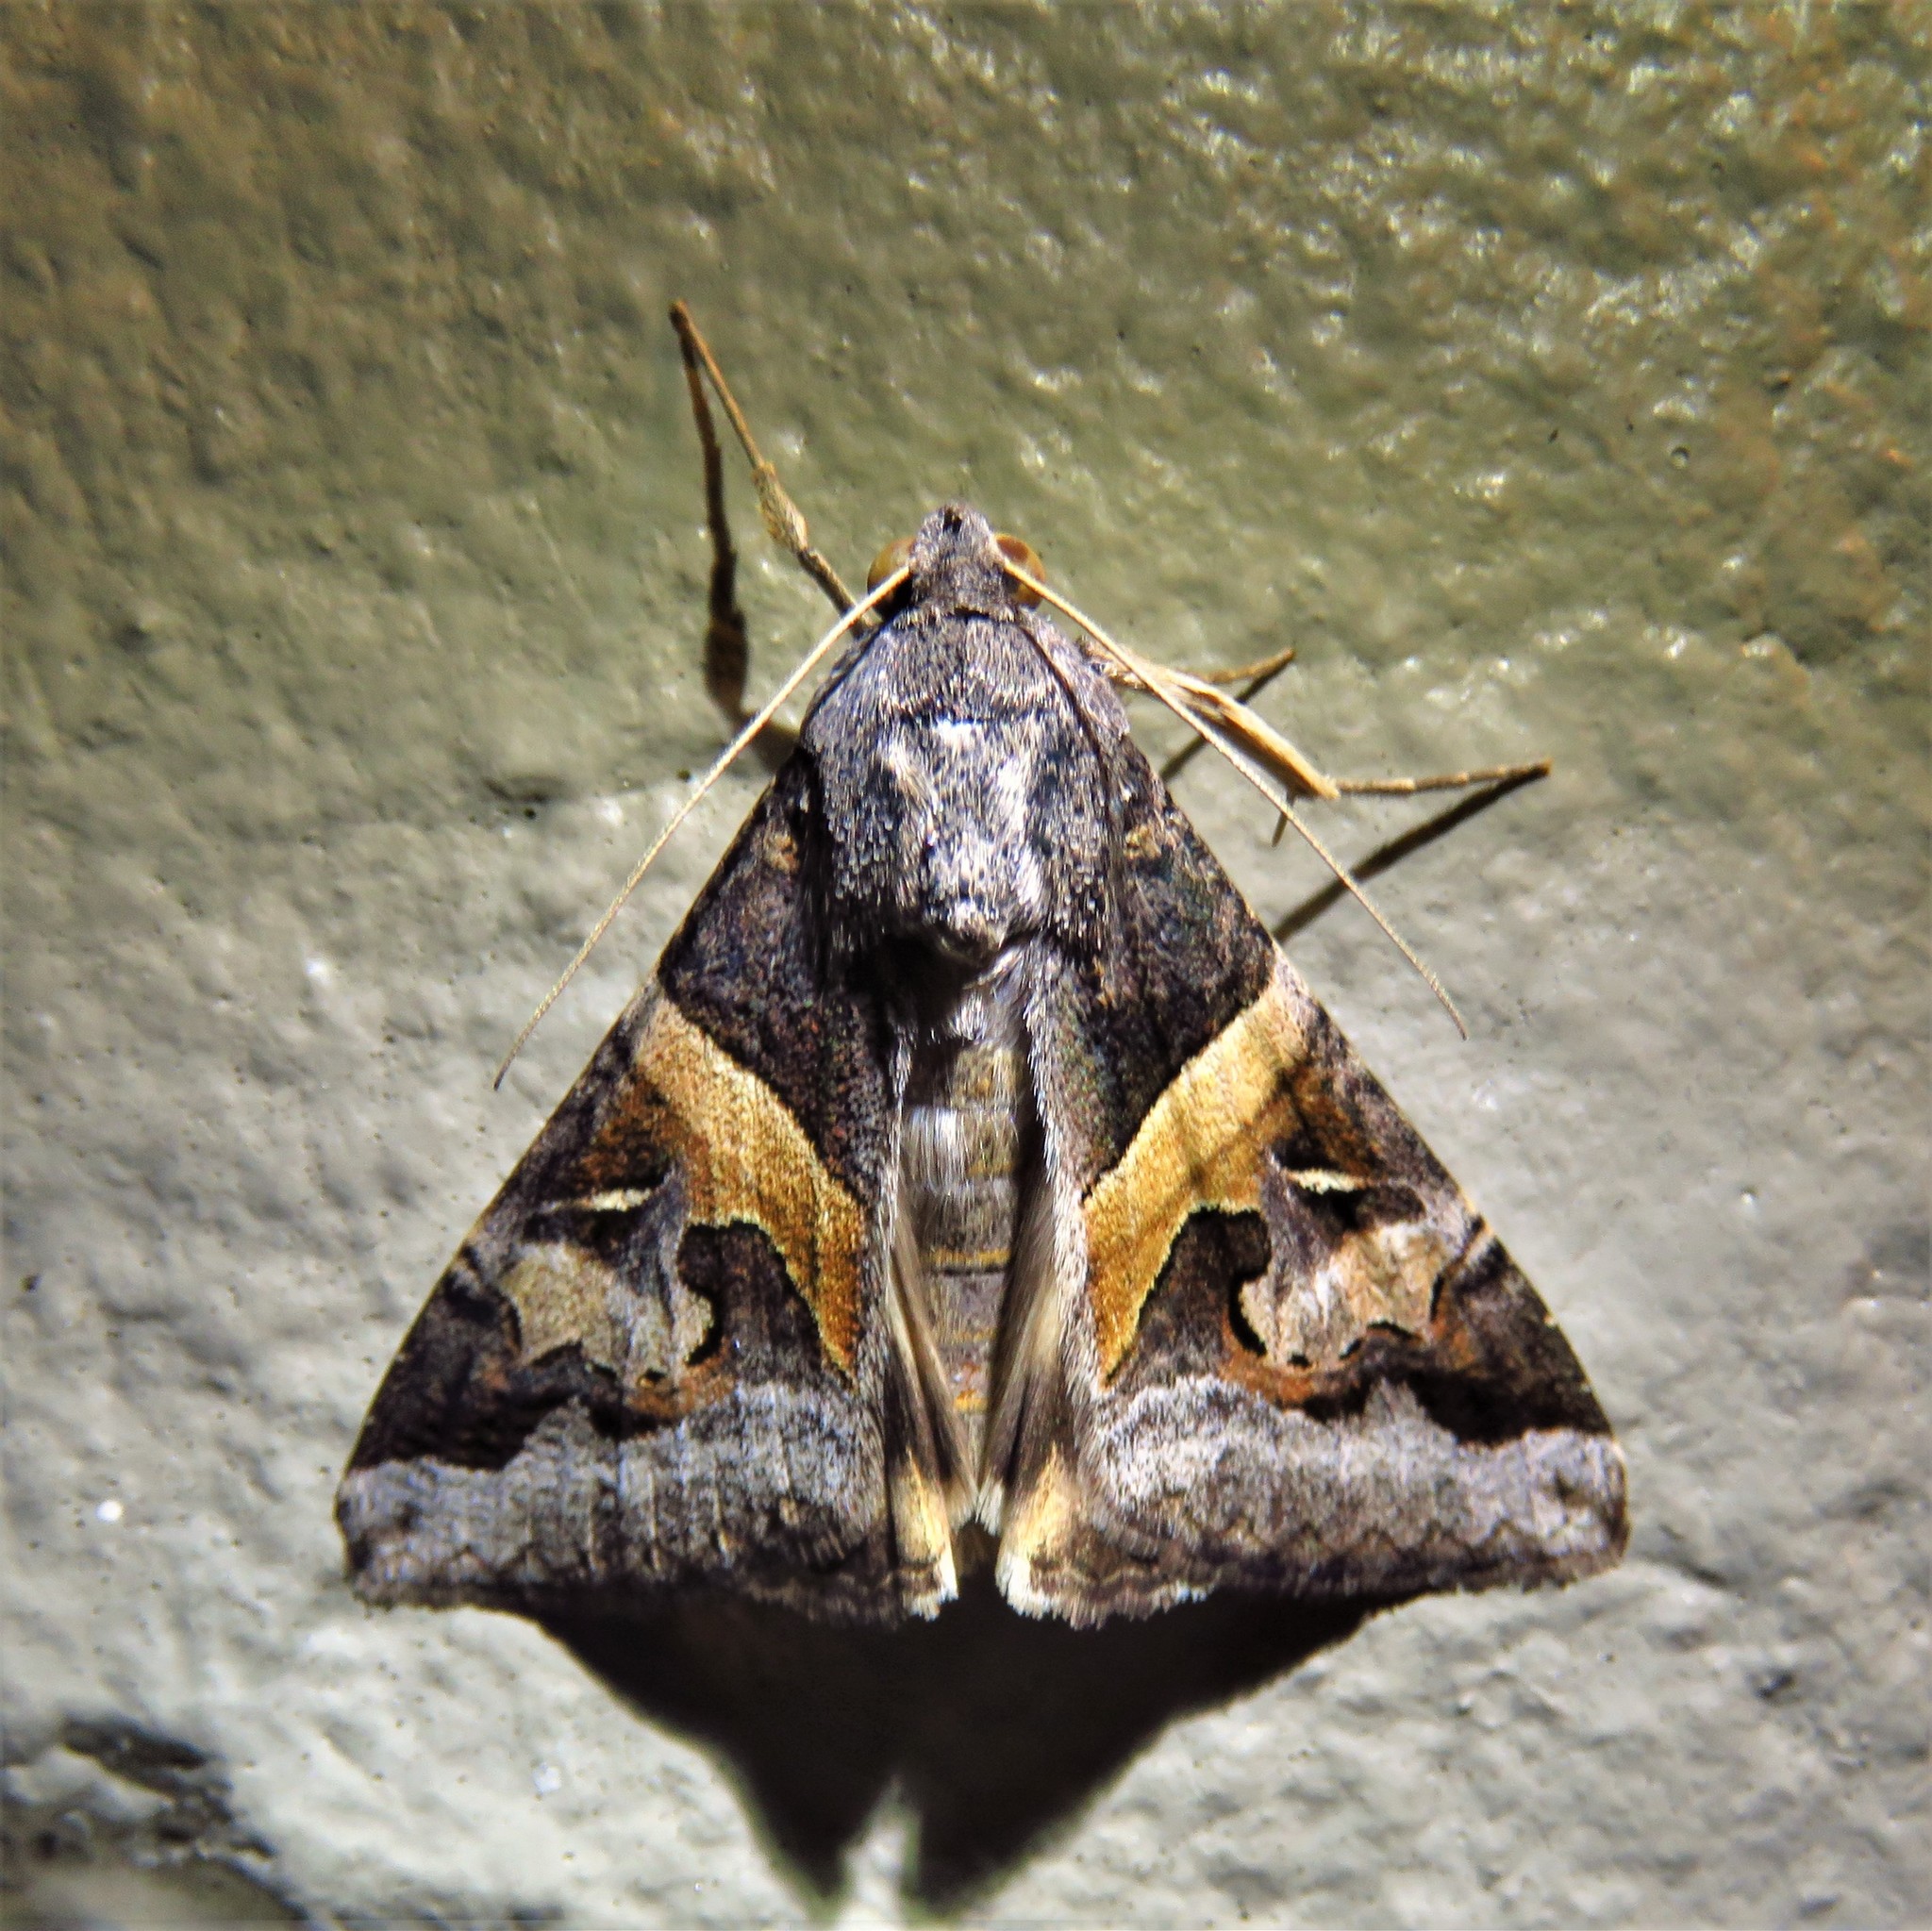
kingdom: Animalia
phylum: Arthropoda
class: Insecta
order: Lepidoptera
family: Erebidae
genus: Melipotis
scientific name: Melipotis indomita
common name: Moth
